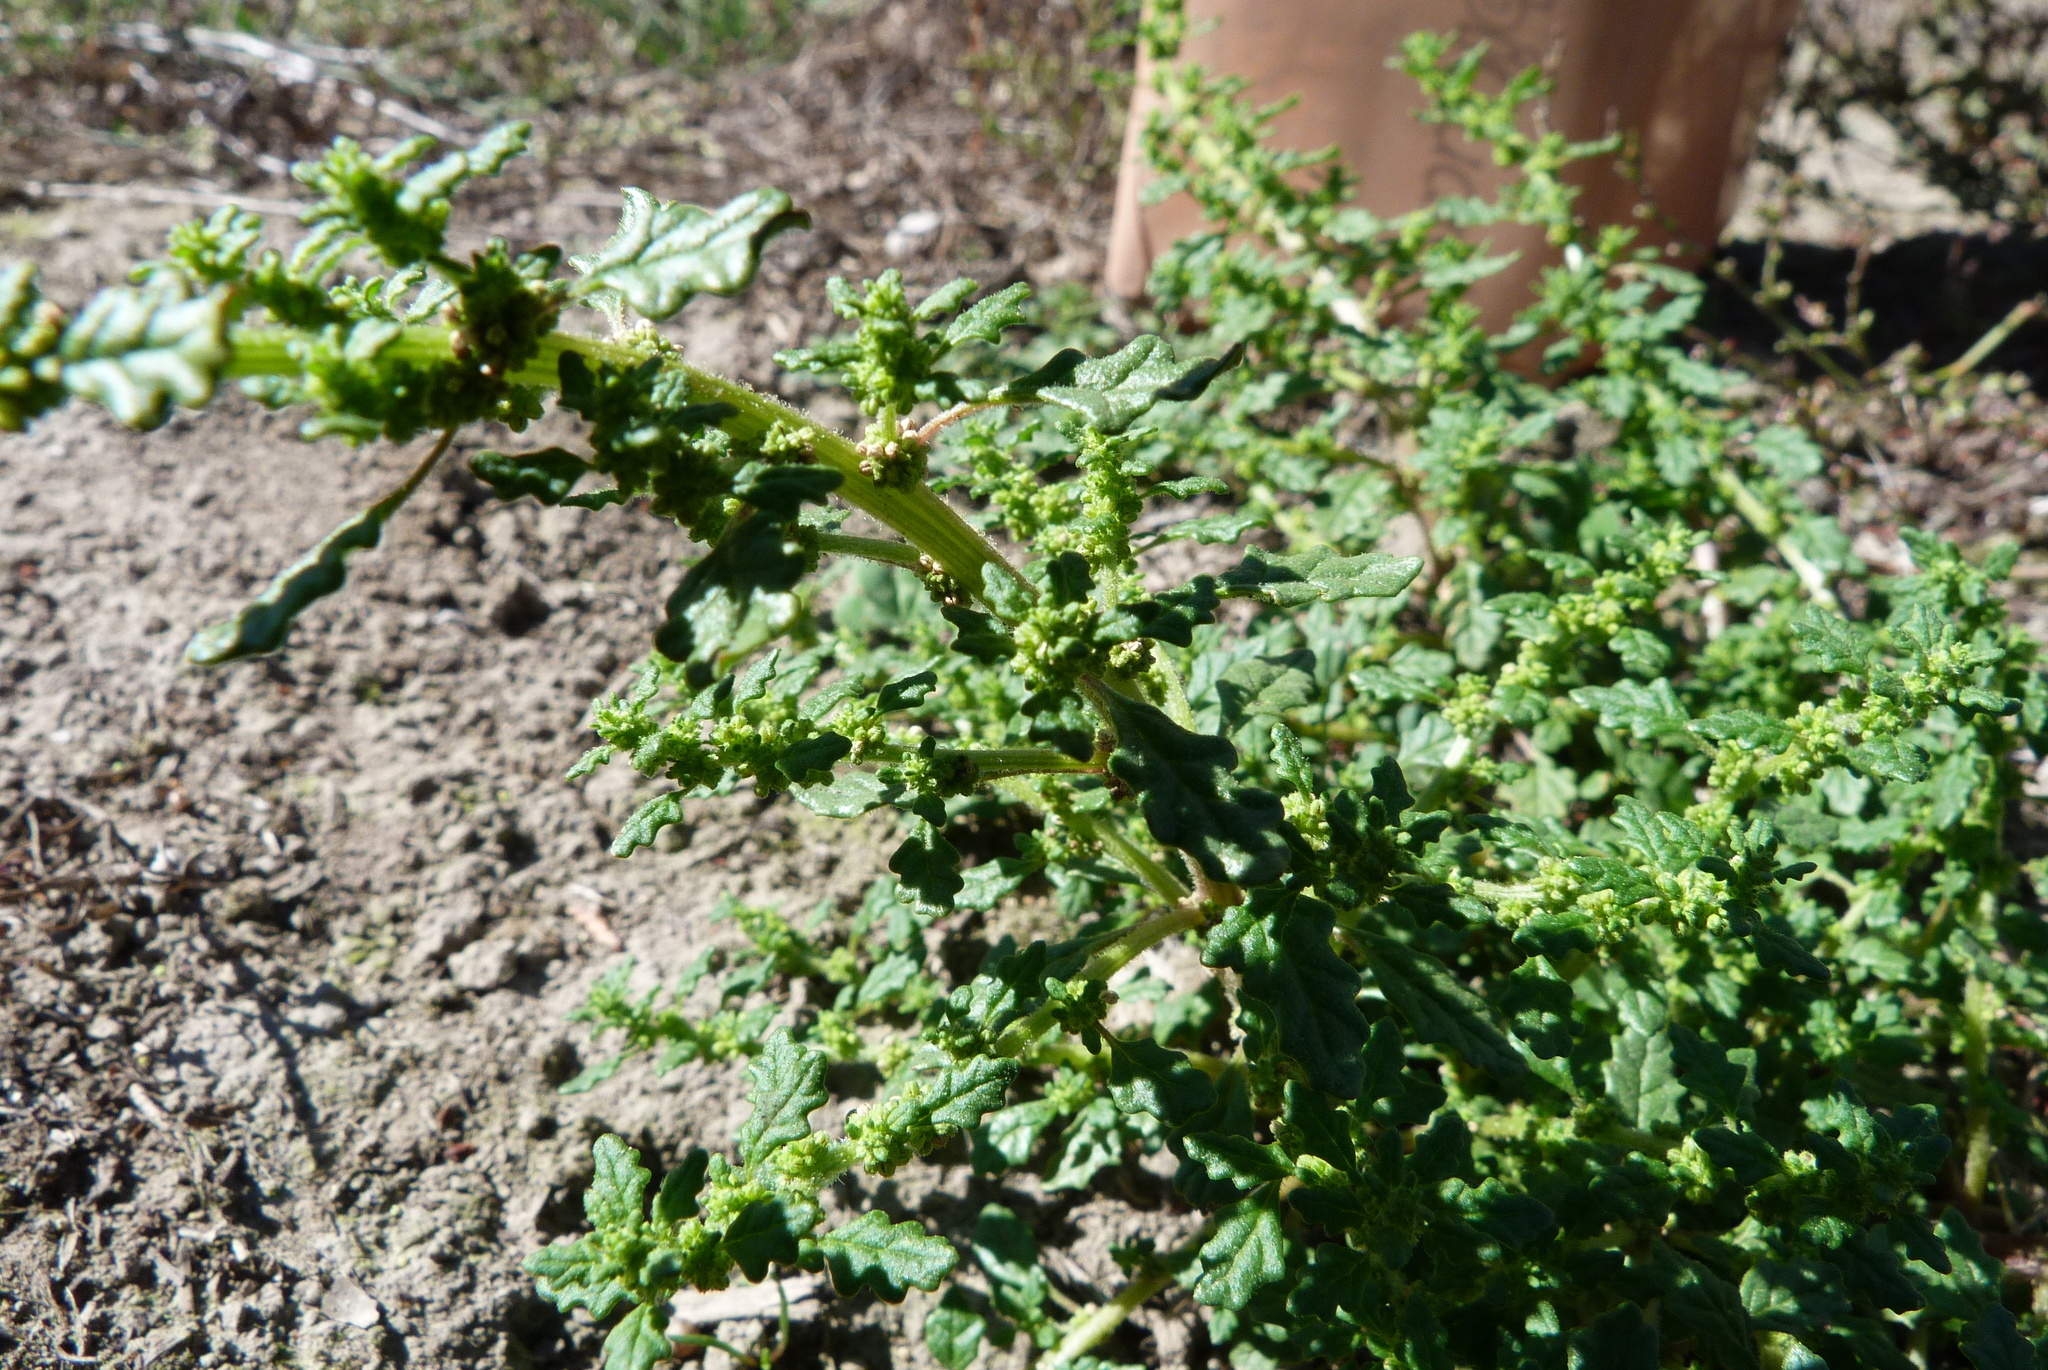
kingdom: Plantae
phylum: Tracheophyta
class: Magnoliopsida
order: Caryophyllales
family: Amaranthaceae
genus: Dysphania
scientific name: Dysphania pumilio
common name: Clammy goosefoot
